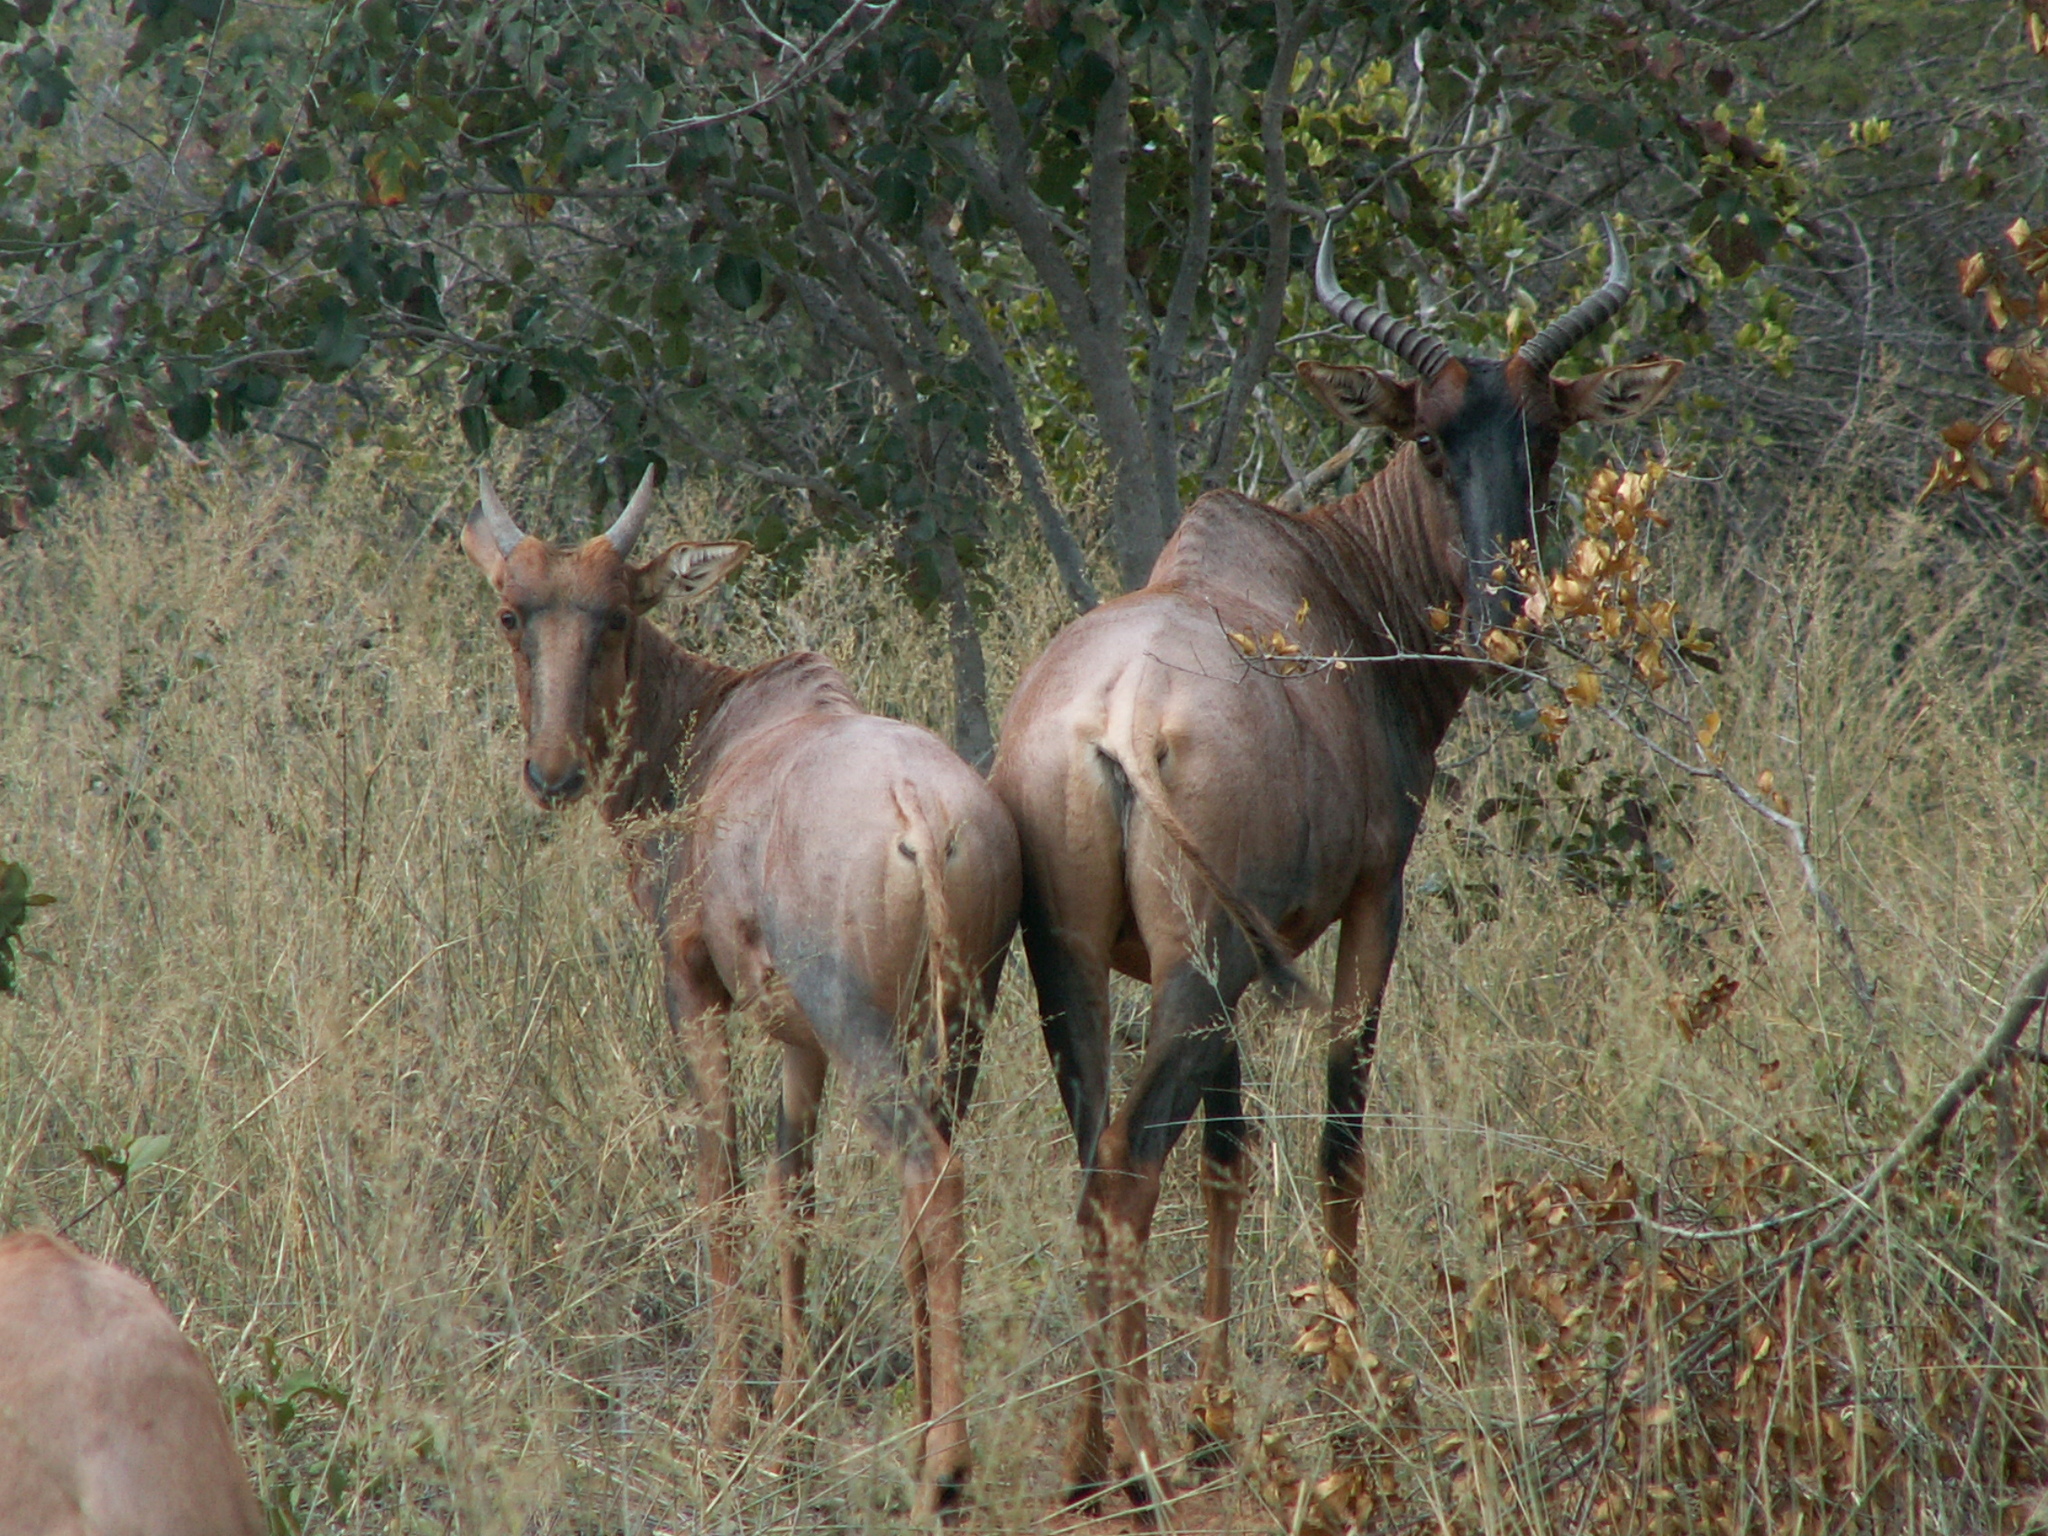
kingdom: Animalia
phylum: Chordata
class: Mammalia
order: Artiodactyla
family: Bovidae
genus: Damaliscus
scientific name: Damaliscus lunatus
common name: Common tsessebe
